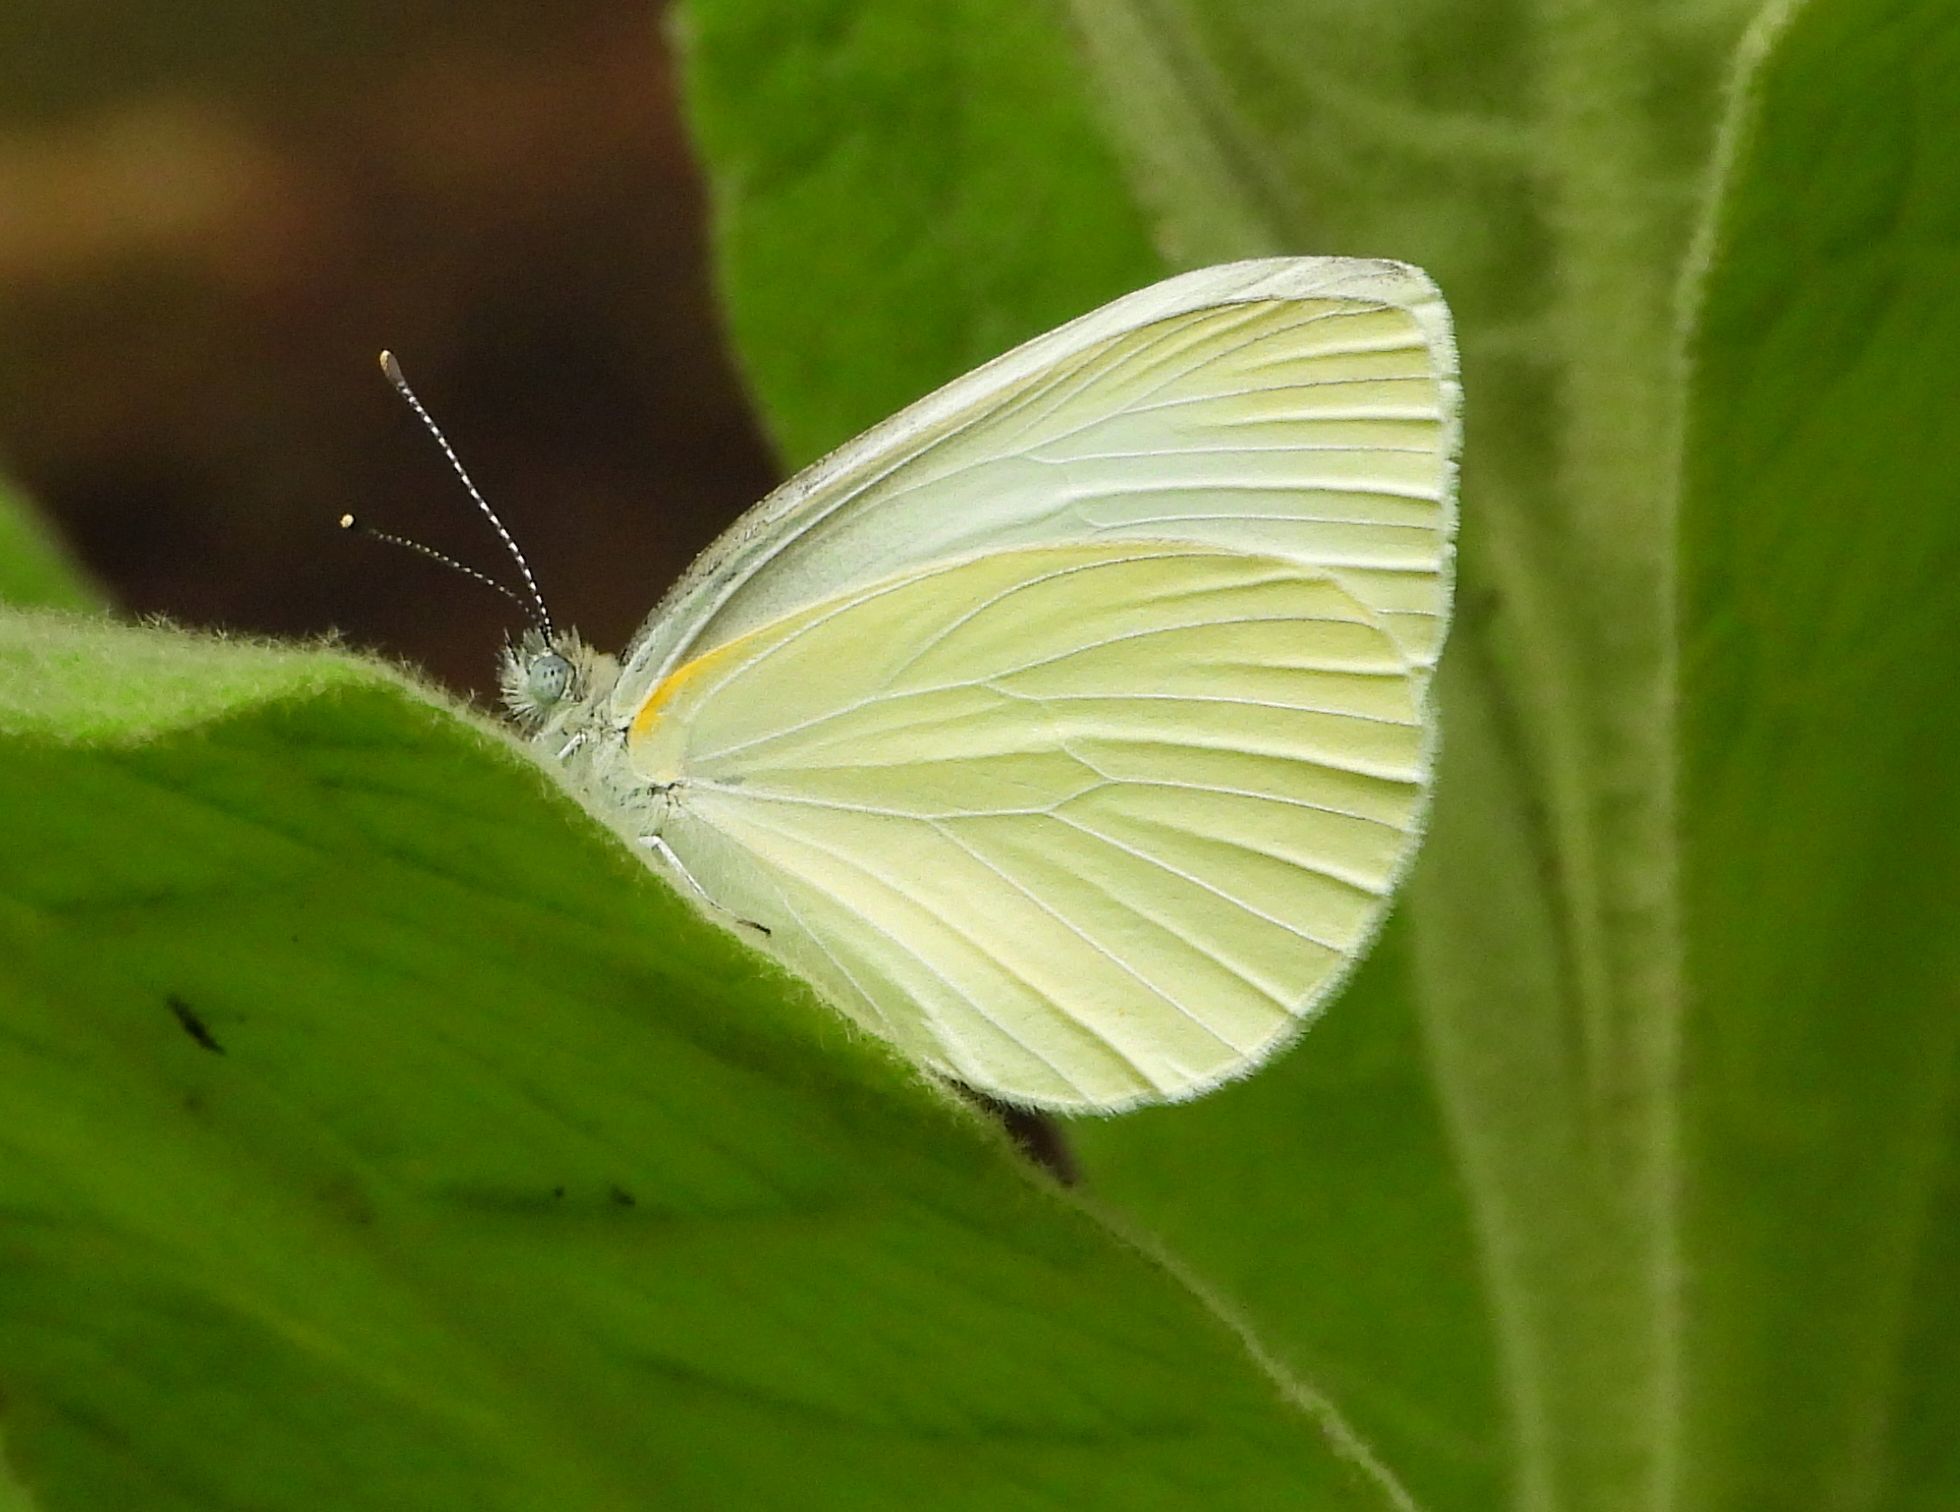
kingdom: Animalia
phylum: Arthropoda
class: Insecta
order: Lepidoptera
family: Pieridae
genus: Pieris
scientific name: Pieris oleracea
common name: Mustard white
